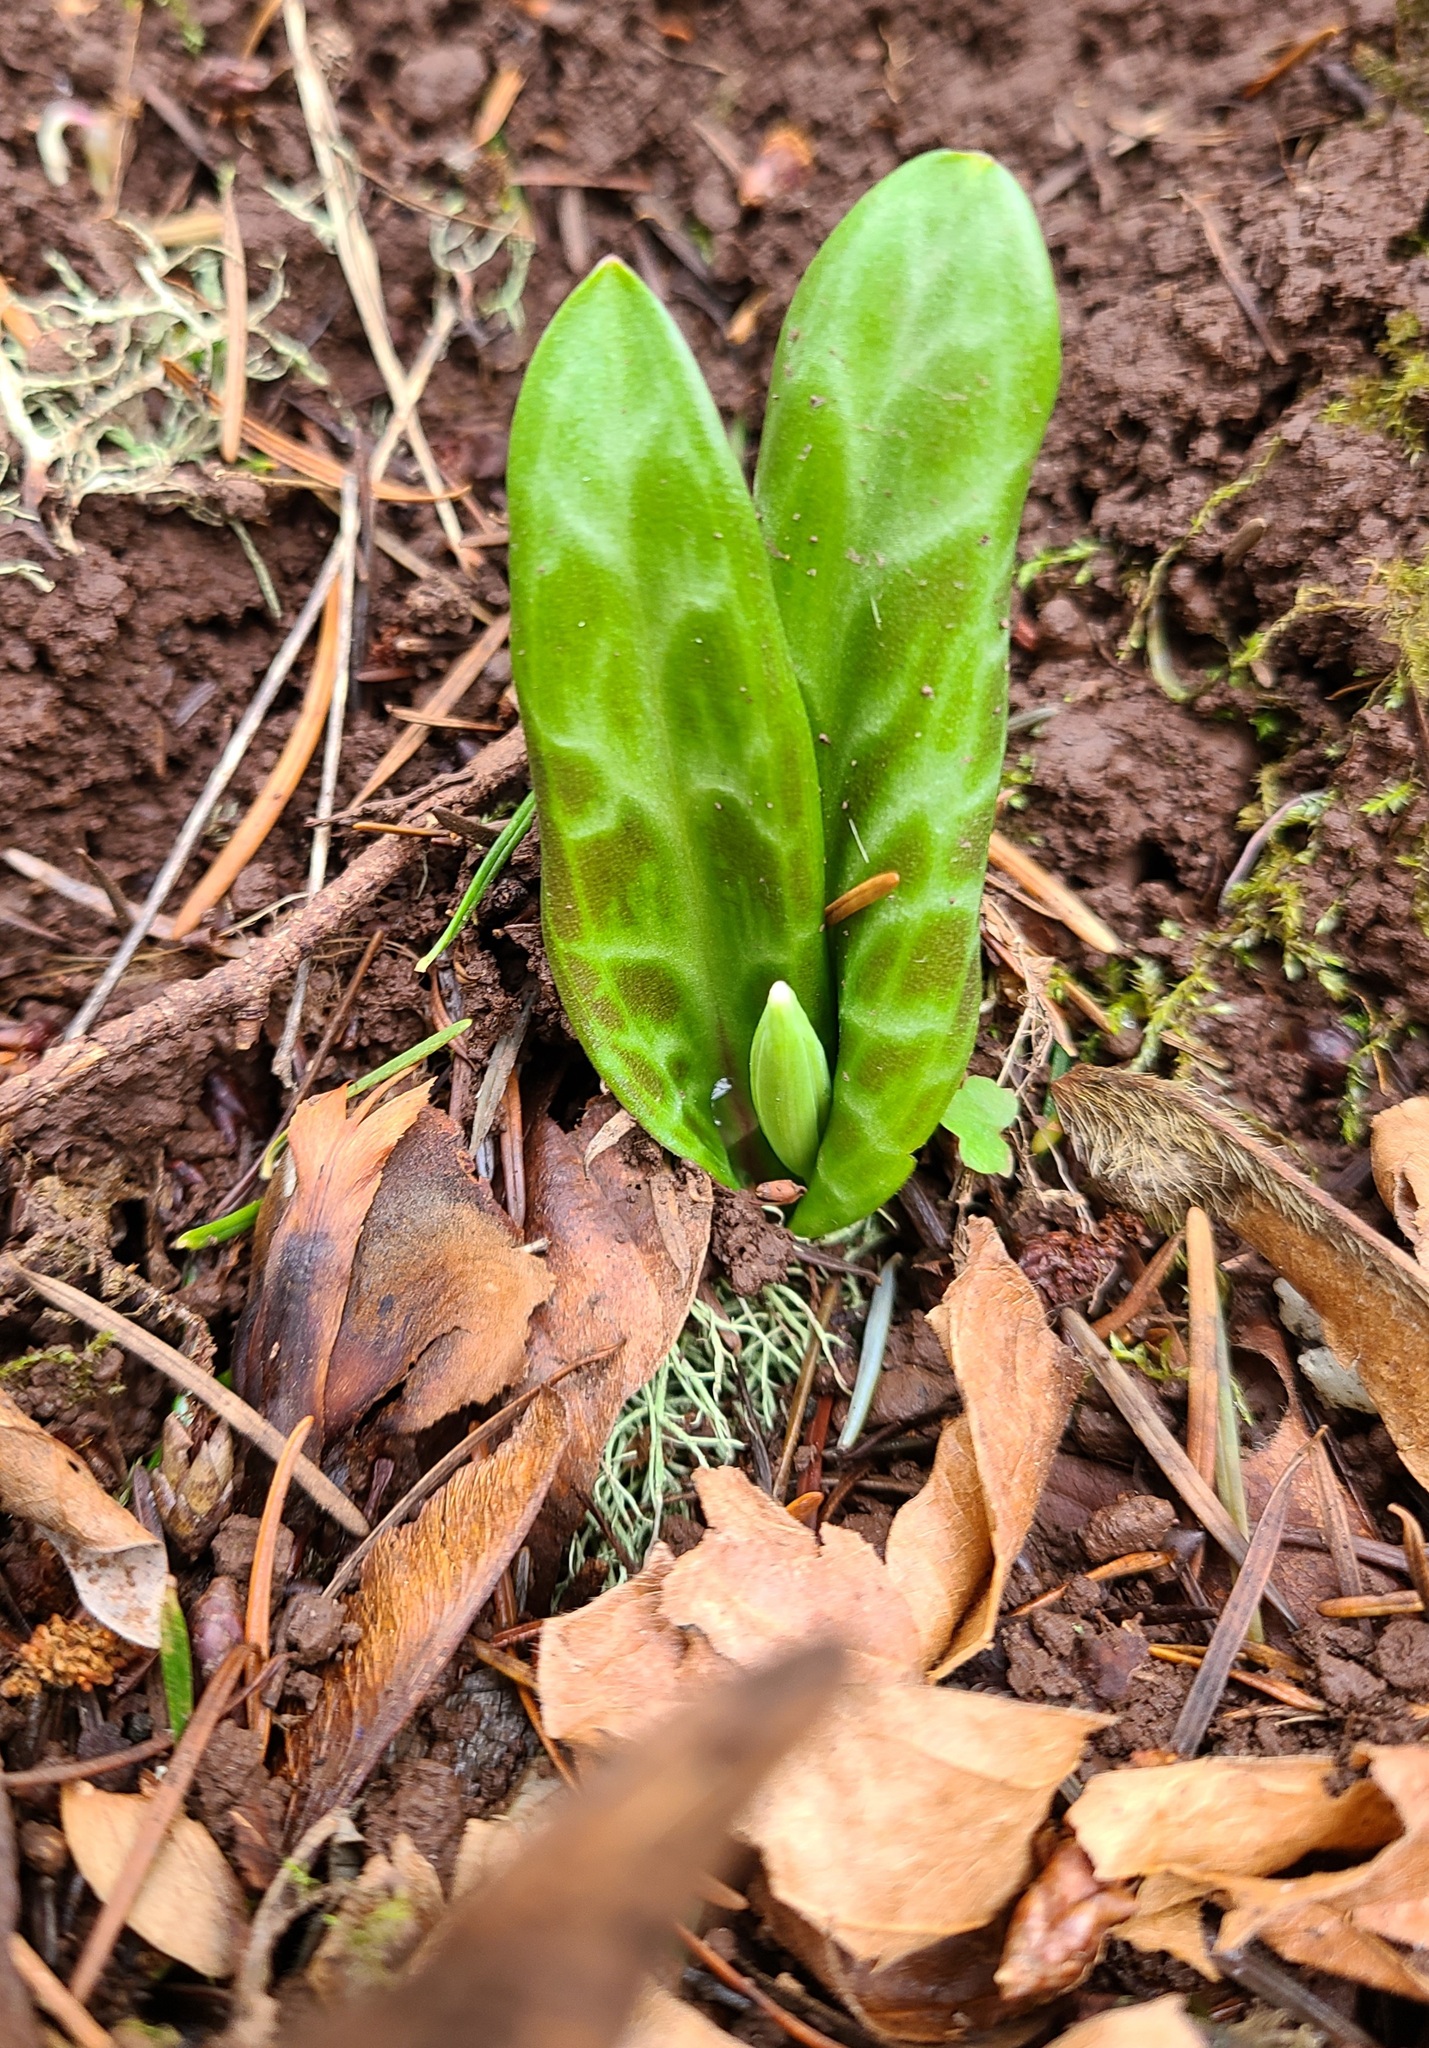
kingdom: Plantae
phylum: Tracheophyta
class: Liliopsida
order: Liliales
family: Liliaceae
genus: Erythronium
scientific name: Erythronium oregonum
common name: Giant adder's-tongue
